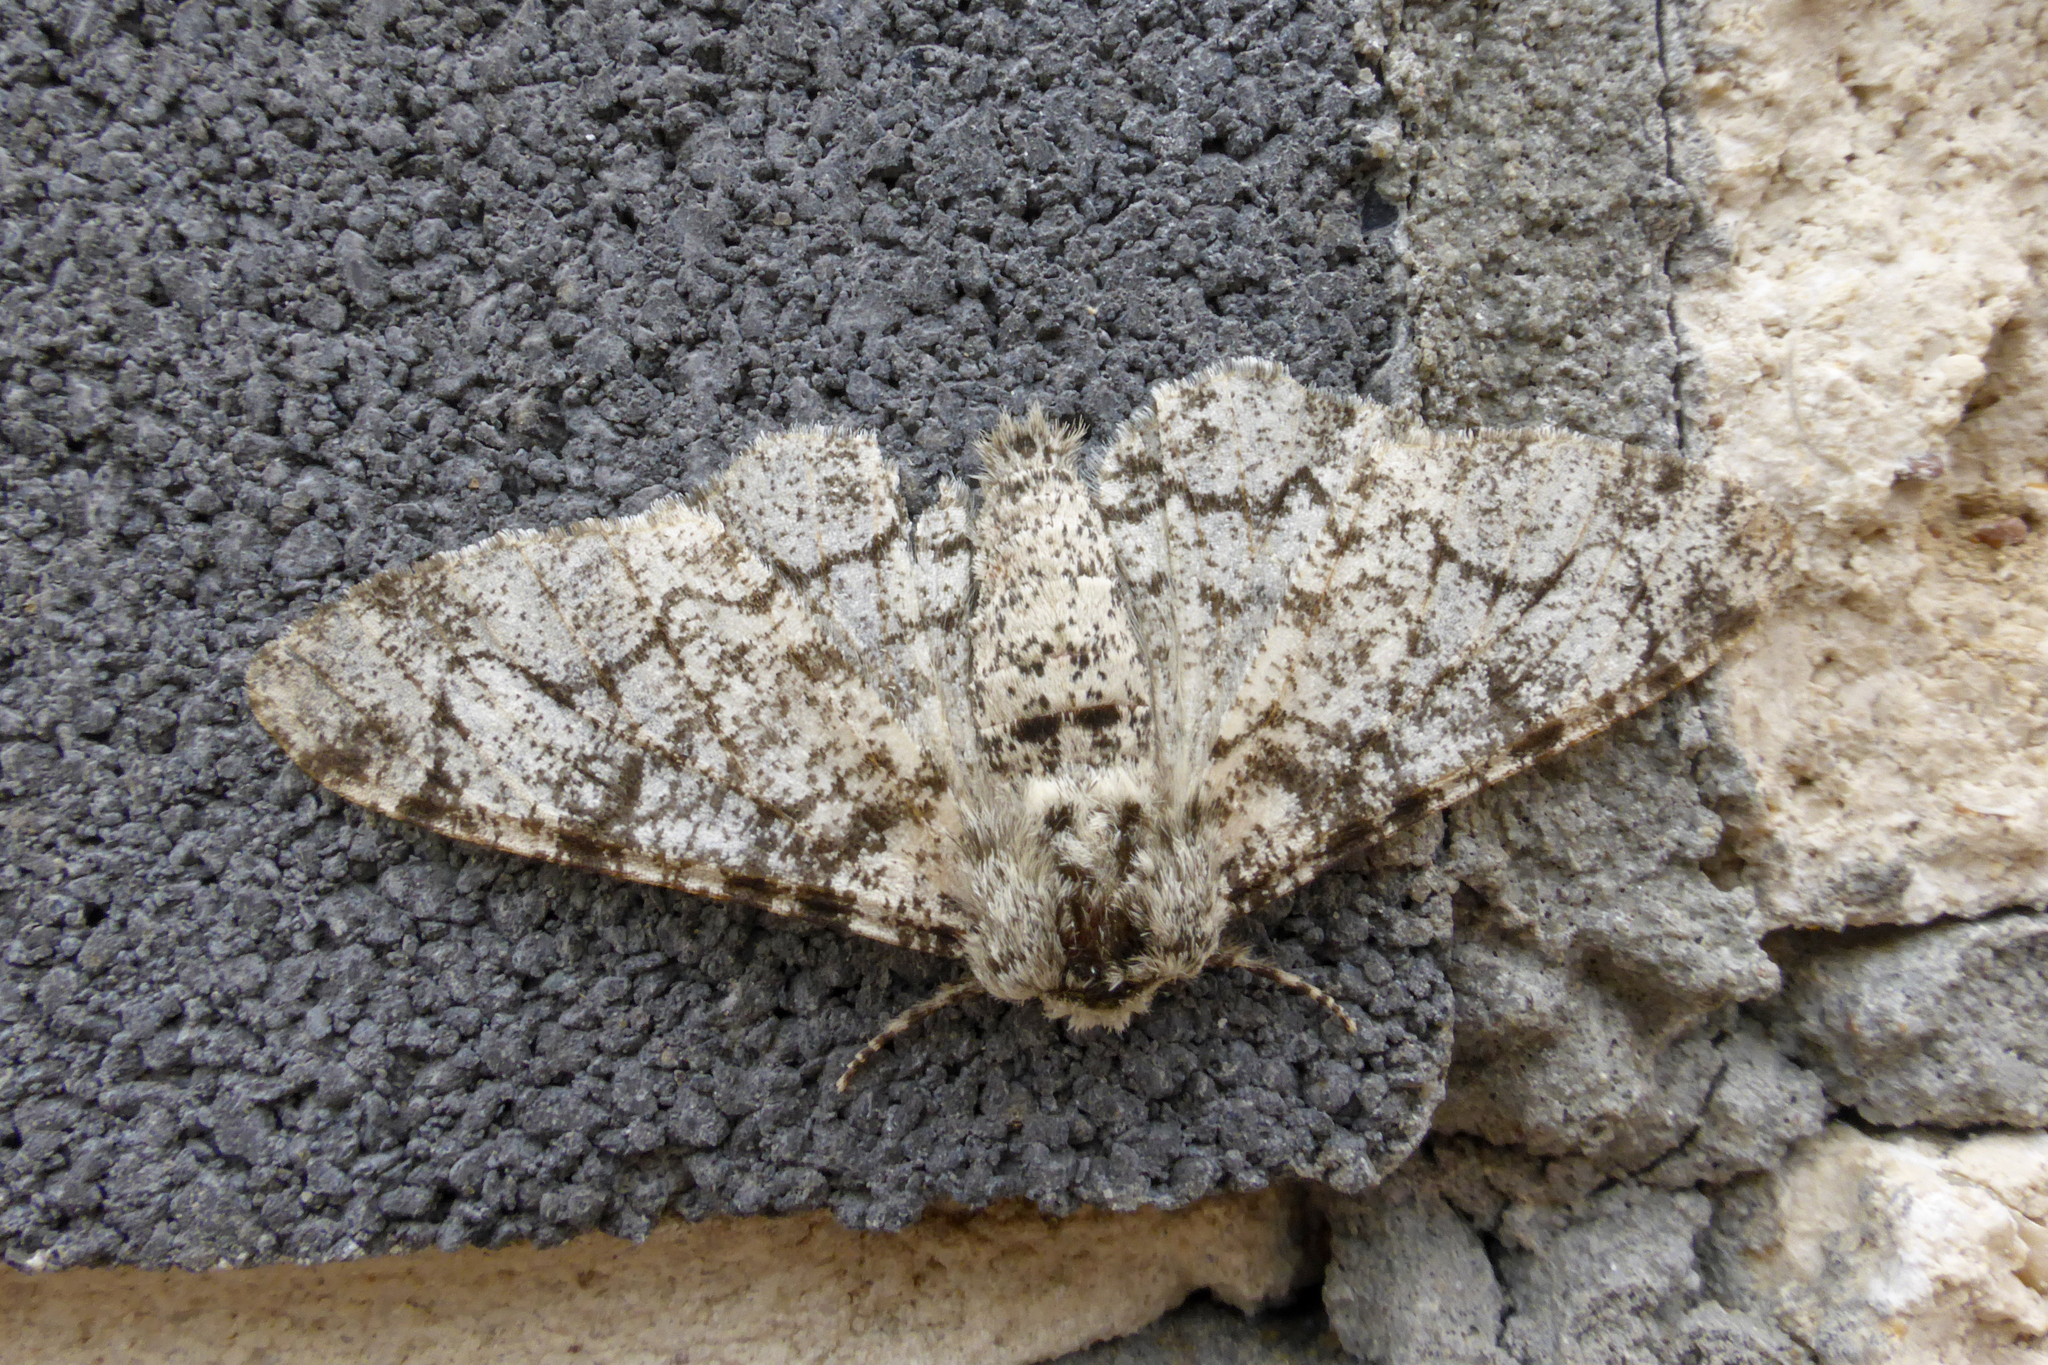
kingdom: Animalia
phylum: Arthropoda
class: Insecta
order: Lepidoptera
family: Geometridae
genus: Biston
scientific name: Biston betularia
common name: Peppered moth
